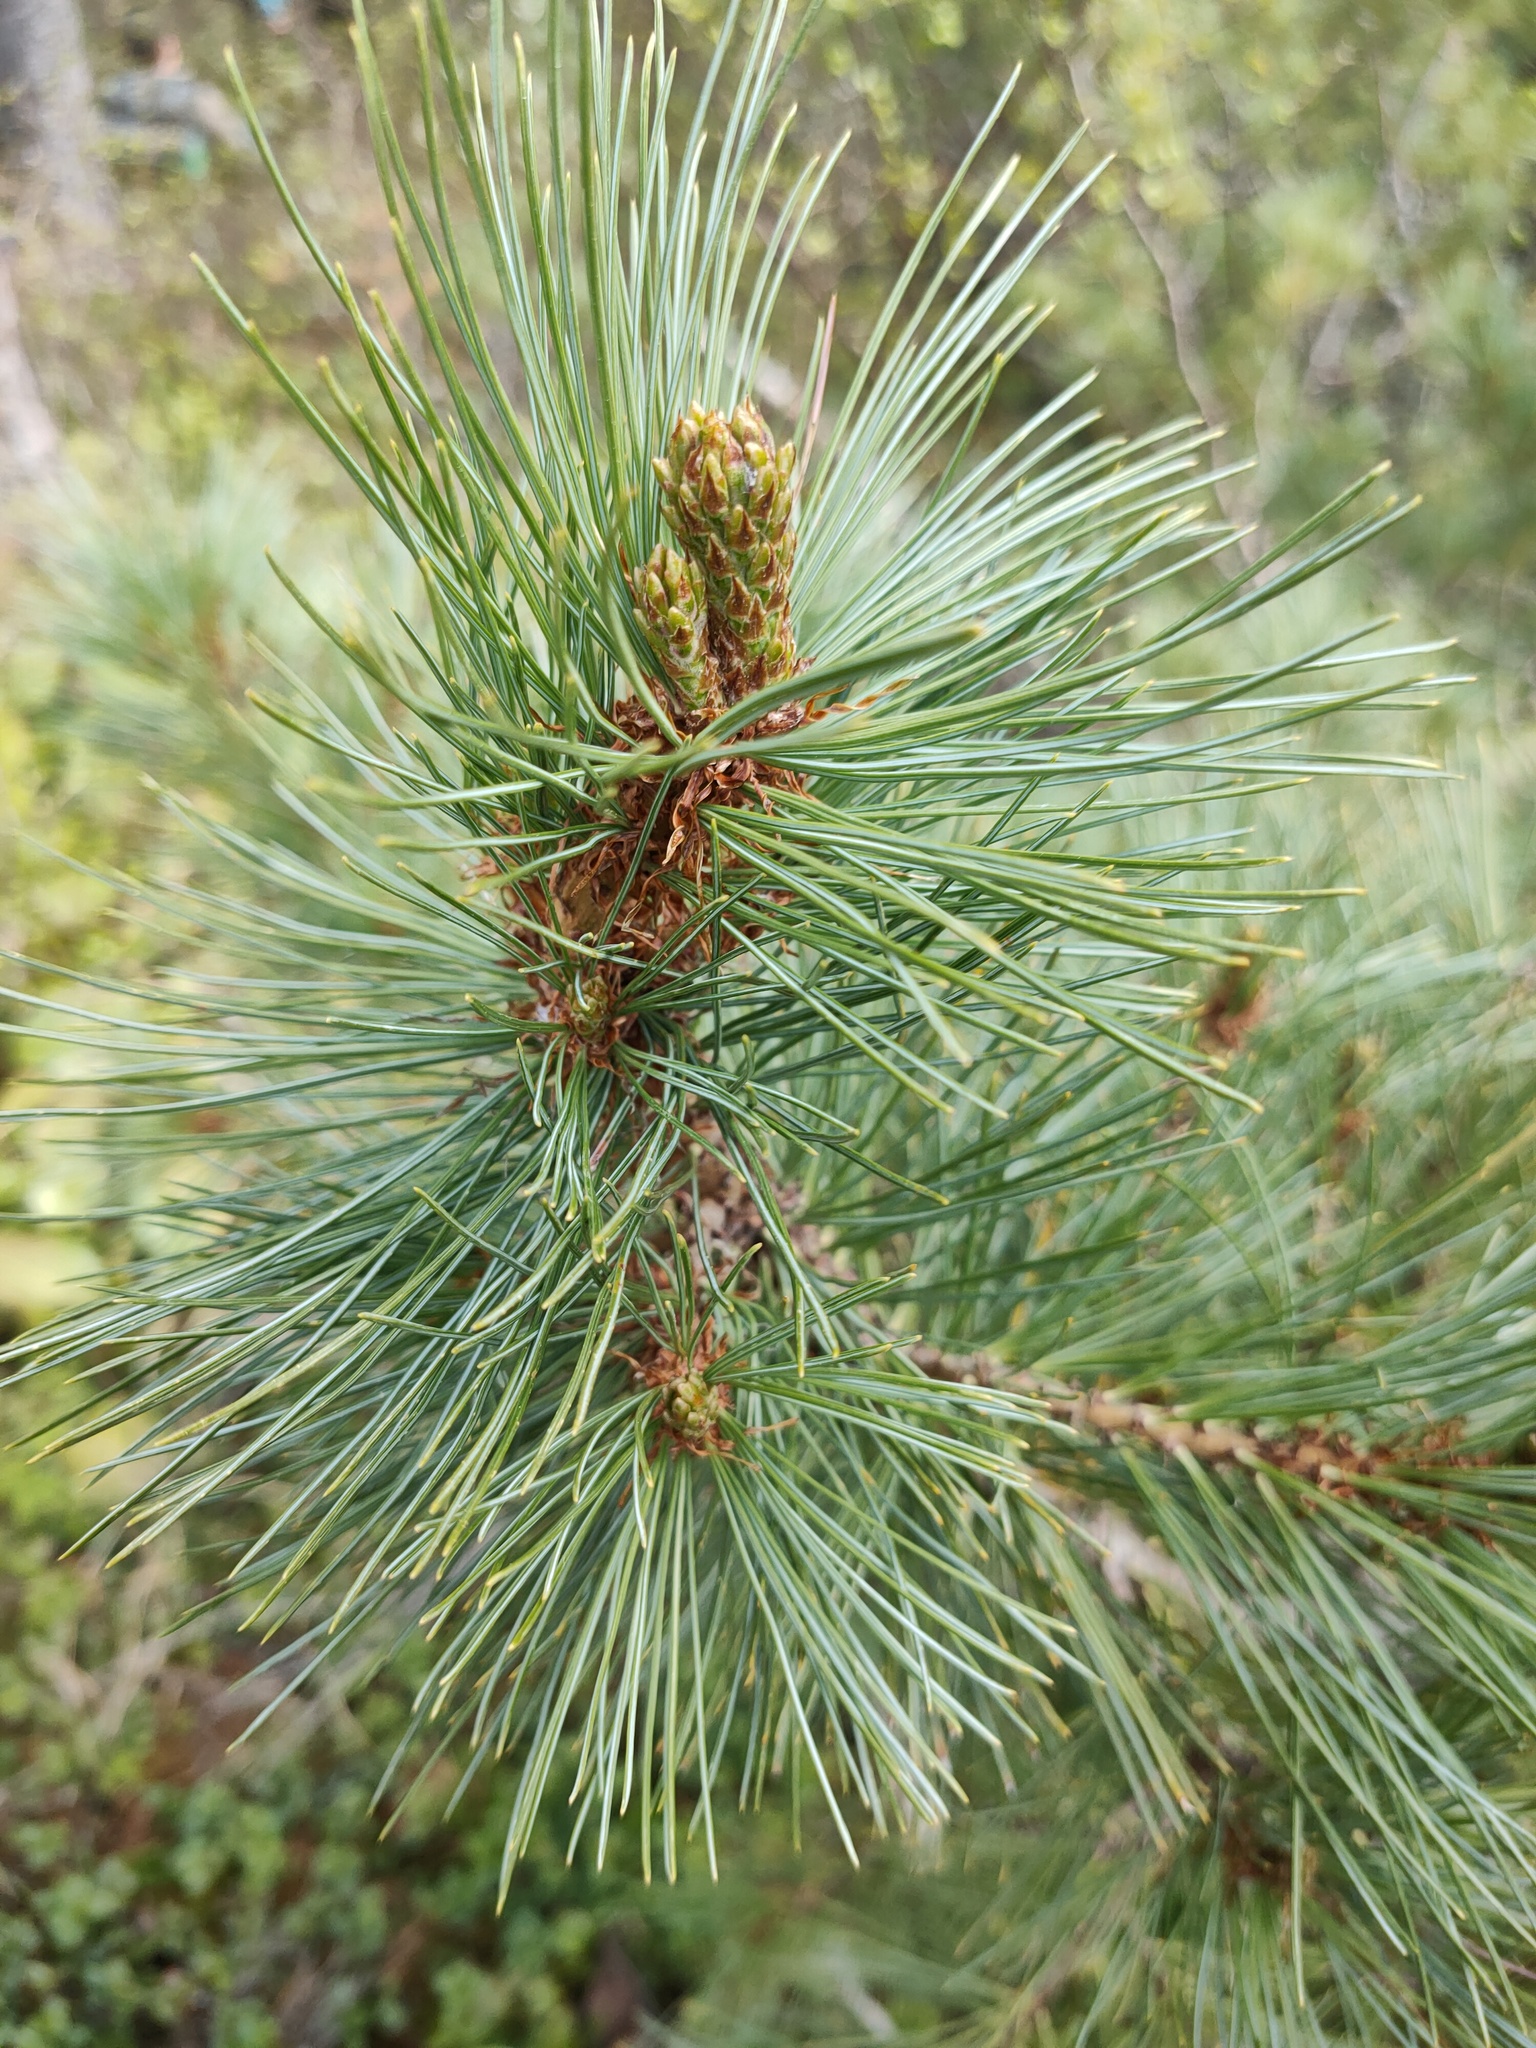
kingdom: Plantae
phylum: Tracheophyta
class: Pinopsida
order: Pinales
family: Pinaceae
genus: Pinus
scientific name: Pinus pumila
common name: Dwarf siberian pine
